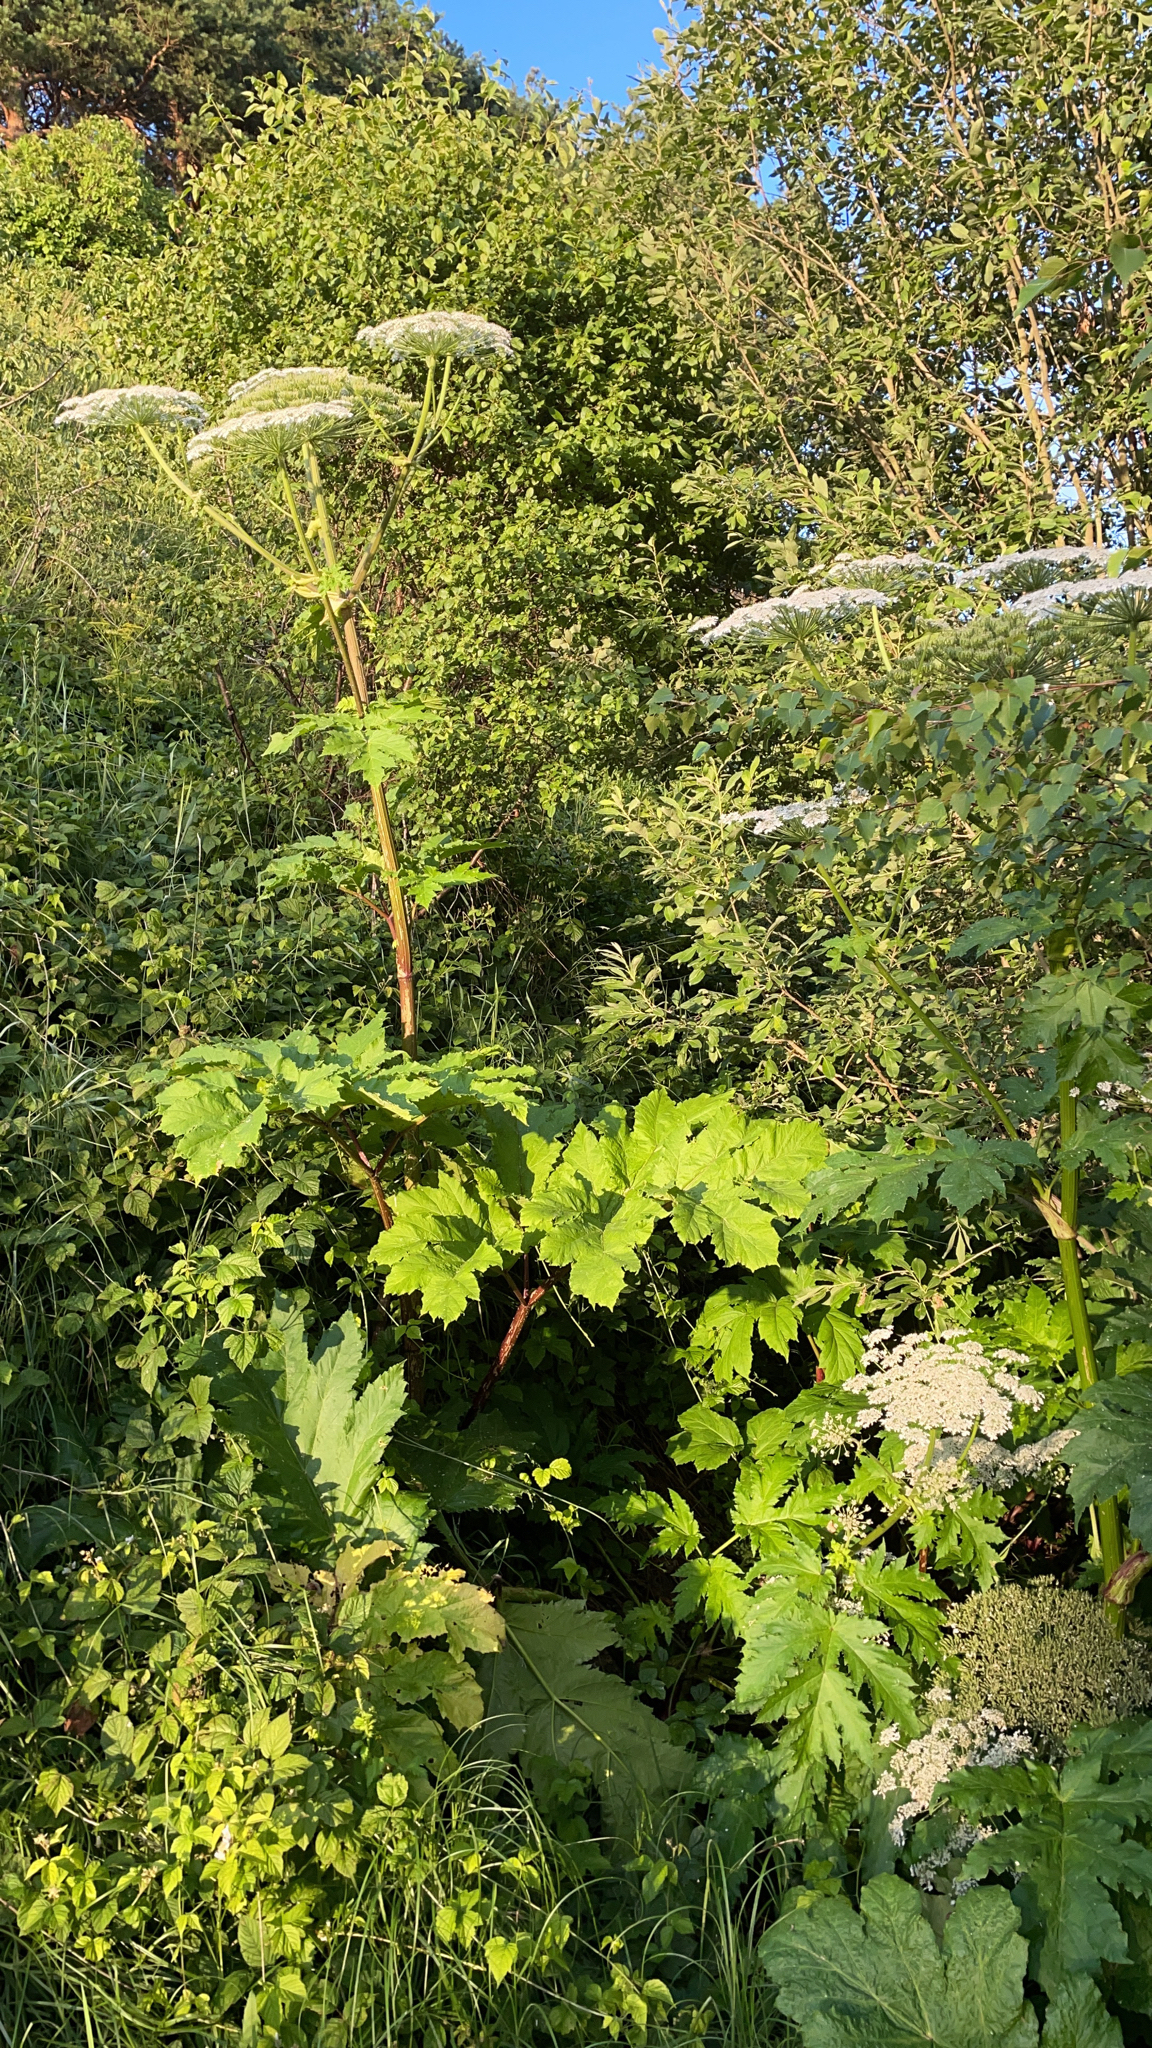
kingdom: Plantae
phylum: Tracheophyta
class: Magnoliopsida
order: Apiales
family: Apiaceae
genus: Heracleum
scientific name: Heracleum sosnowskyi
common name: Sosnowsky's hogweed
